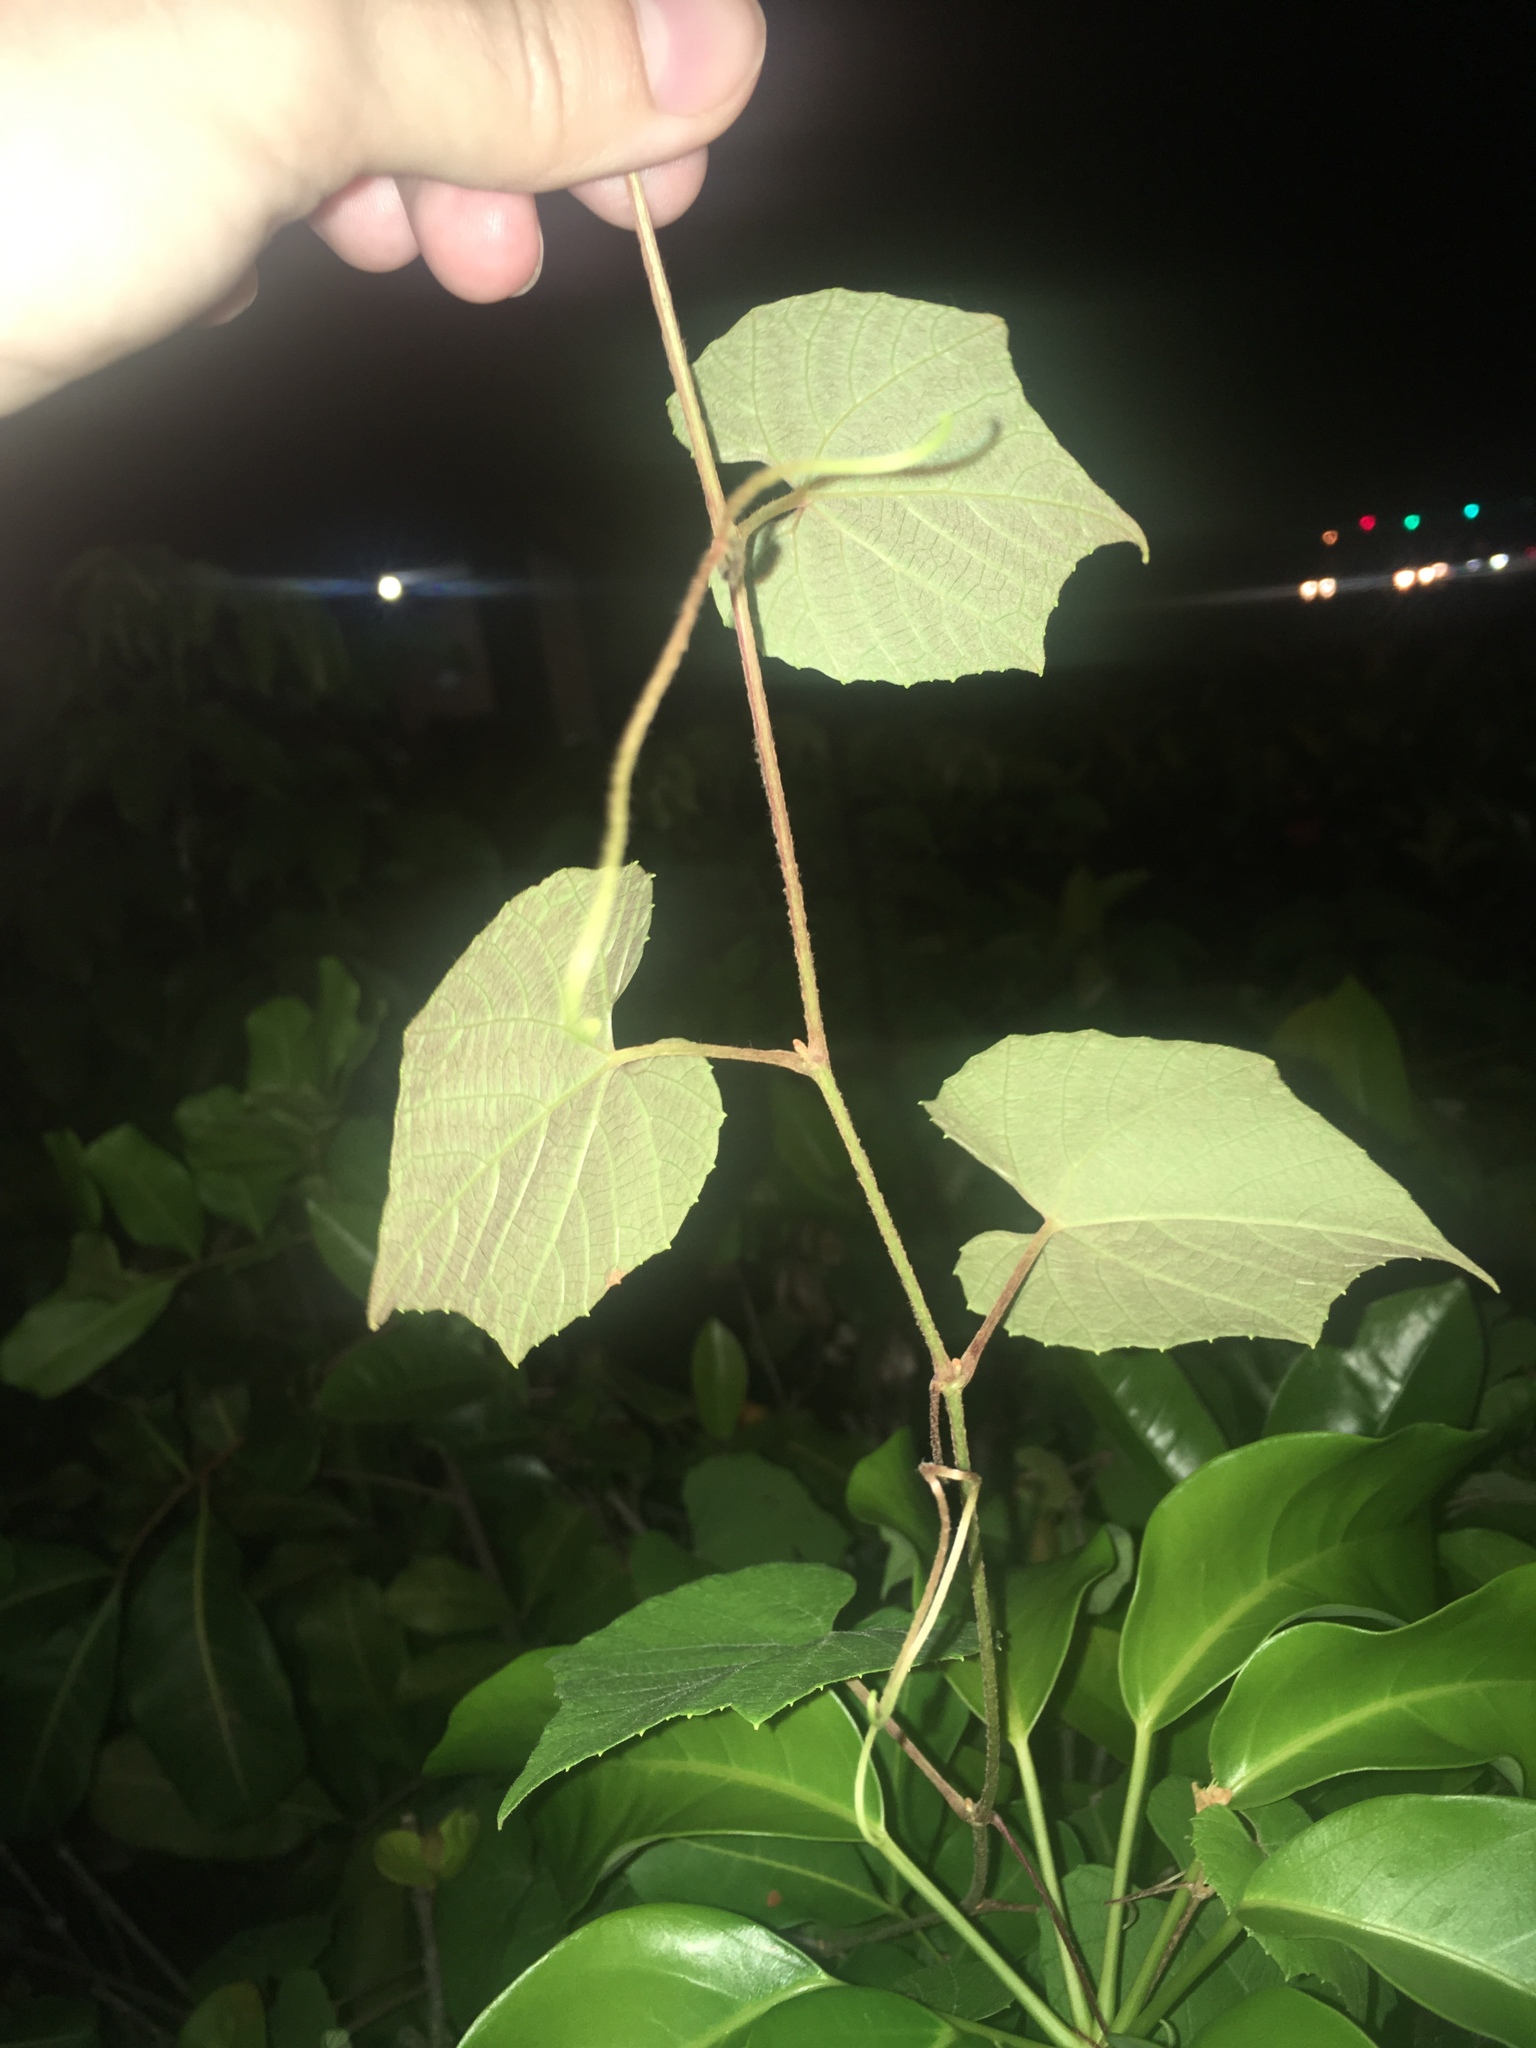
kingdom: Plantae
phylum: Tracheophyta
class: Magnoliopsida
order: Vitales
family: Vitaceae
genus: Vitis
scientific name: Vitis cinerea
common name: Ashy grape
